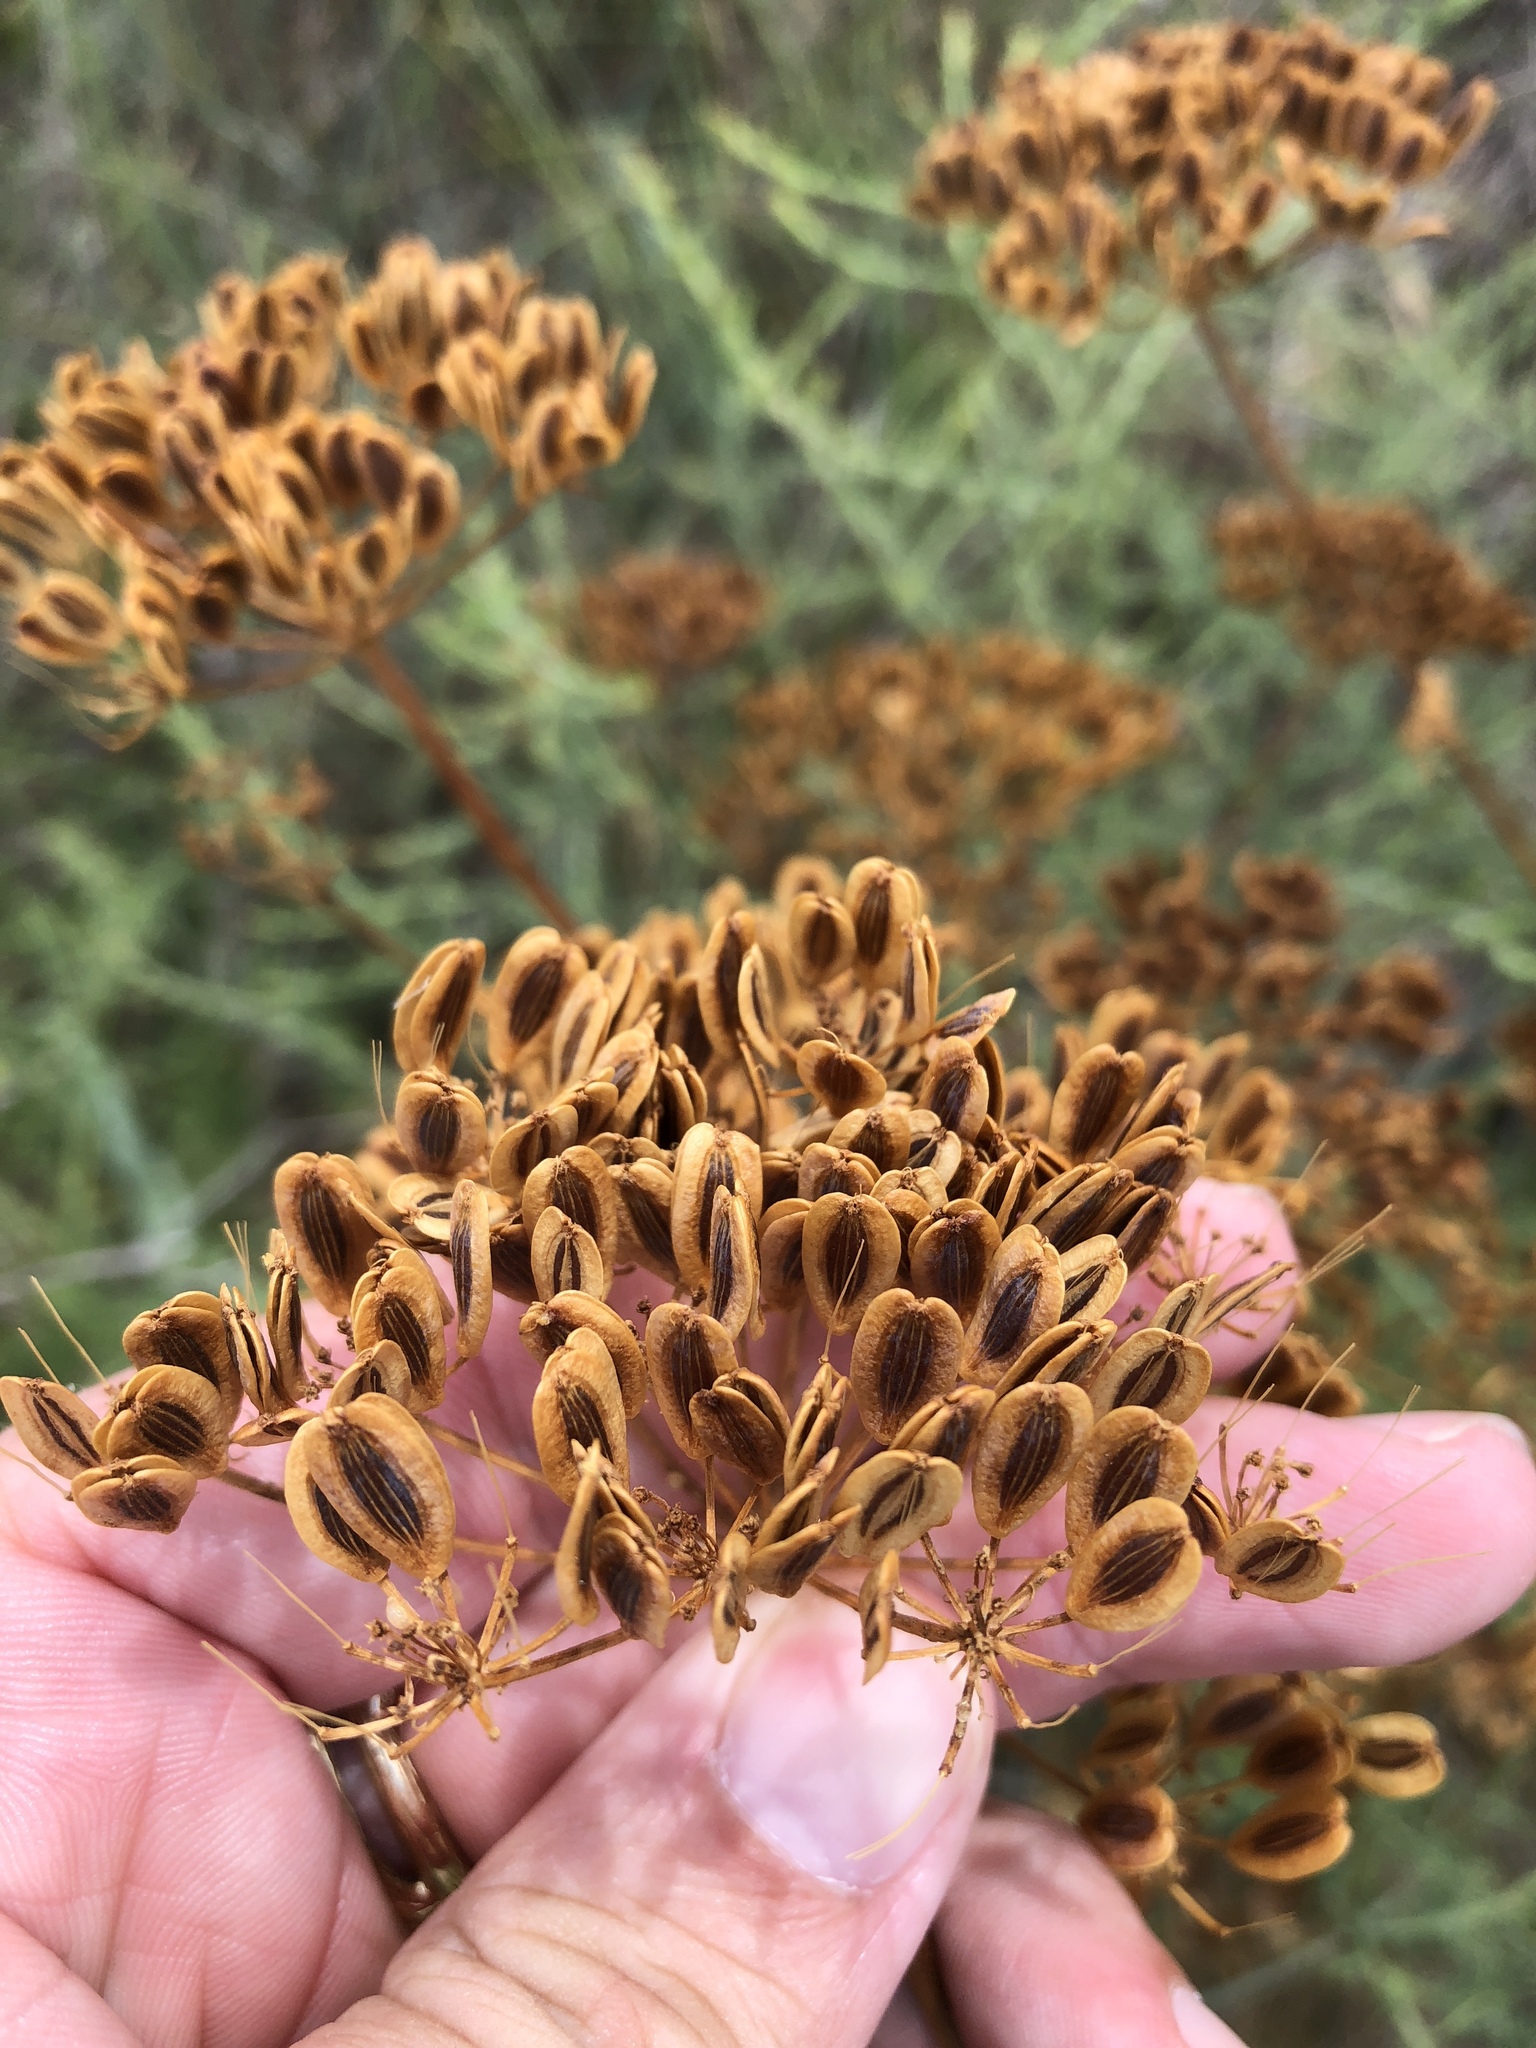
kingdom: Plantae
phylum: Tracheophyta
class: Magnoliopsida
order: Apiales
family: Apiaceae
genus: Polytaenia
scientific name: Polytaenia texana
